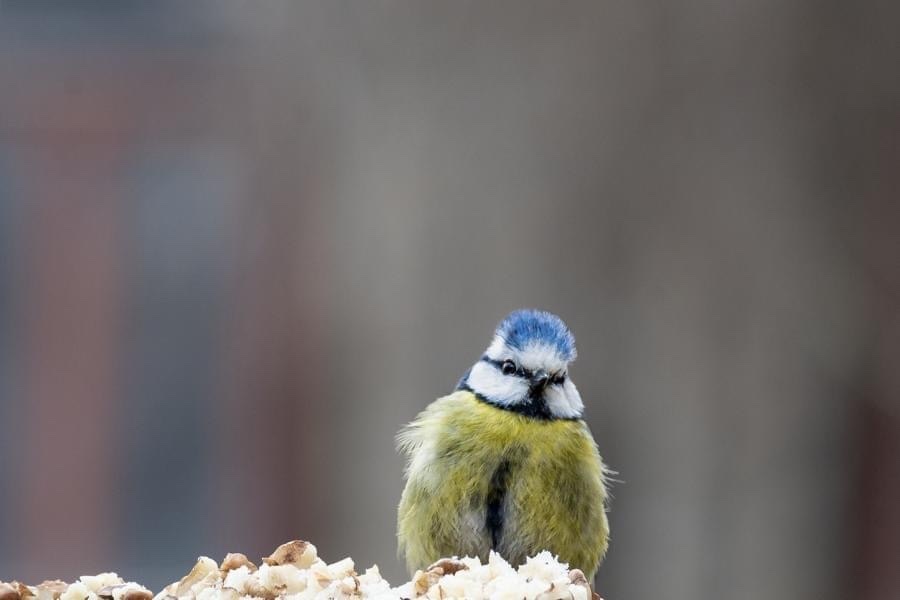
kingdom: Animalia
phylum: Chordata
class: Aves
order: Passeriformes
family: Paridae
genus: Cyanistes
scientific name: Cyanistes caeruleus
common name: Eurasian blue tit
